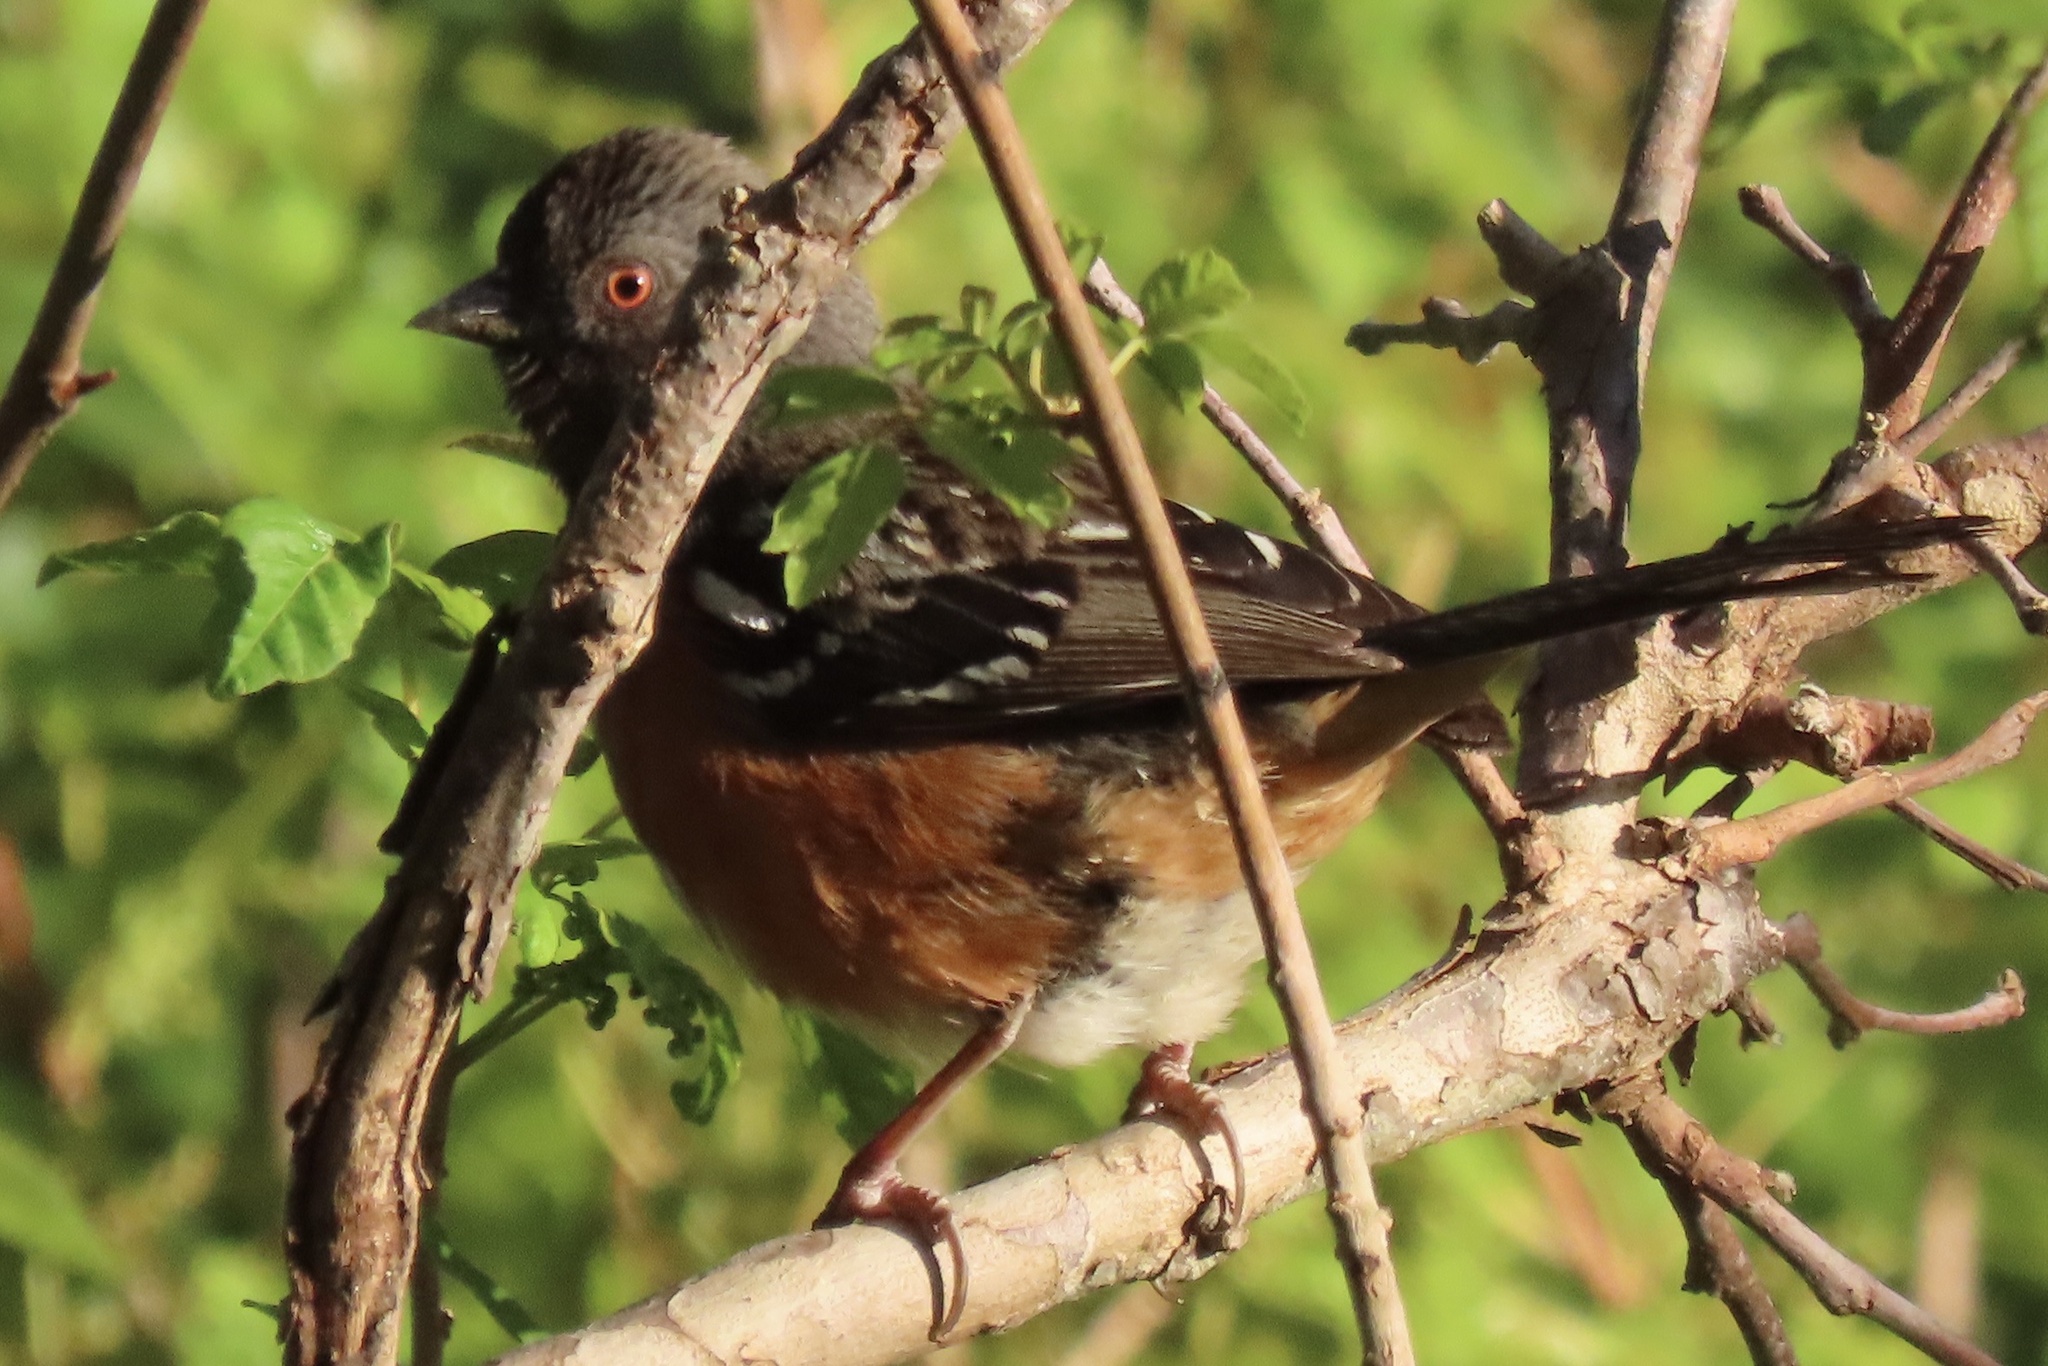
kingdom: Animalia
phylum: Chordata
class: Aves
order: Passeriformes
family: Passerellidae
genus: Pipilo
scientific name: Pipilo maculatus
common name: Spotted towhee
